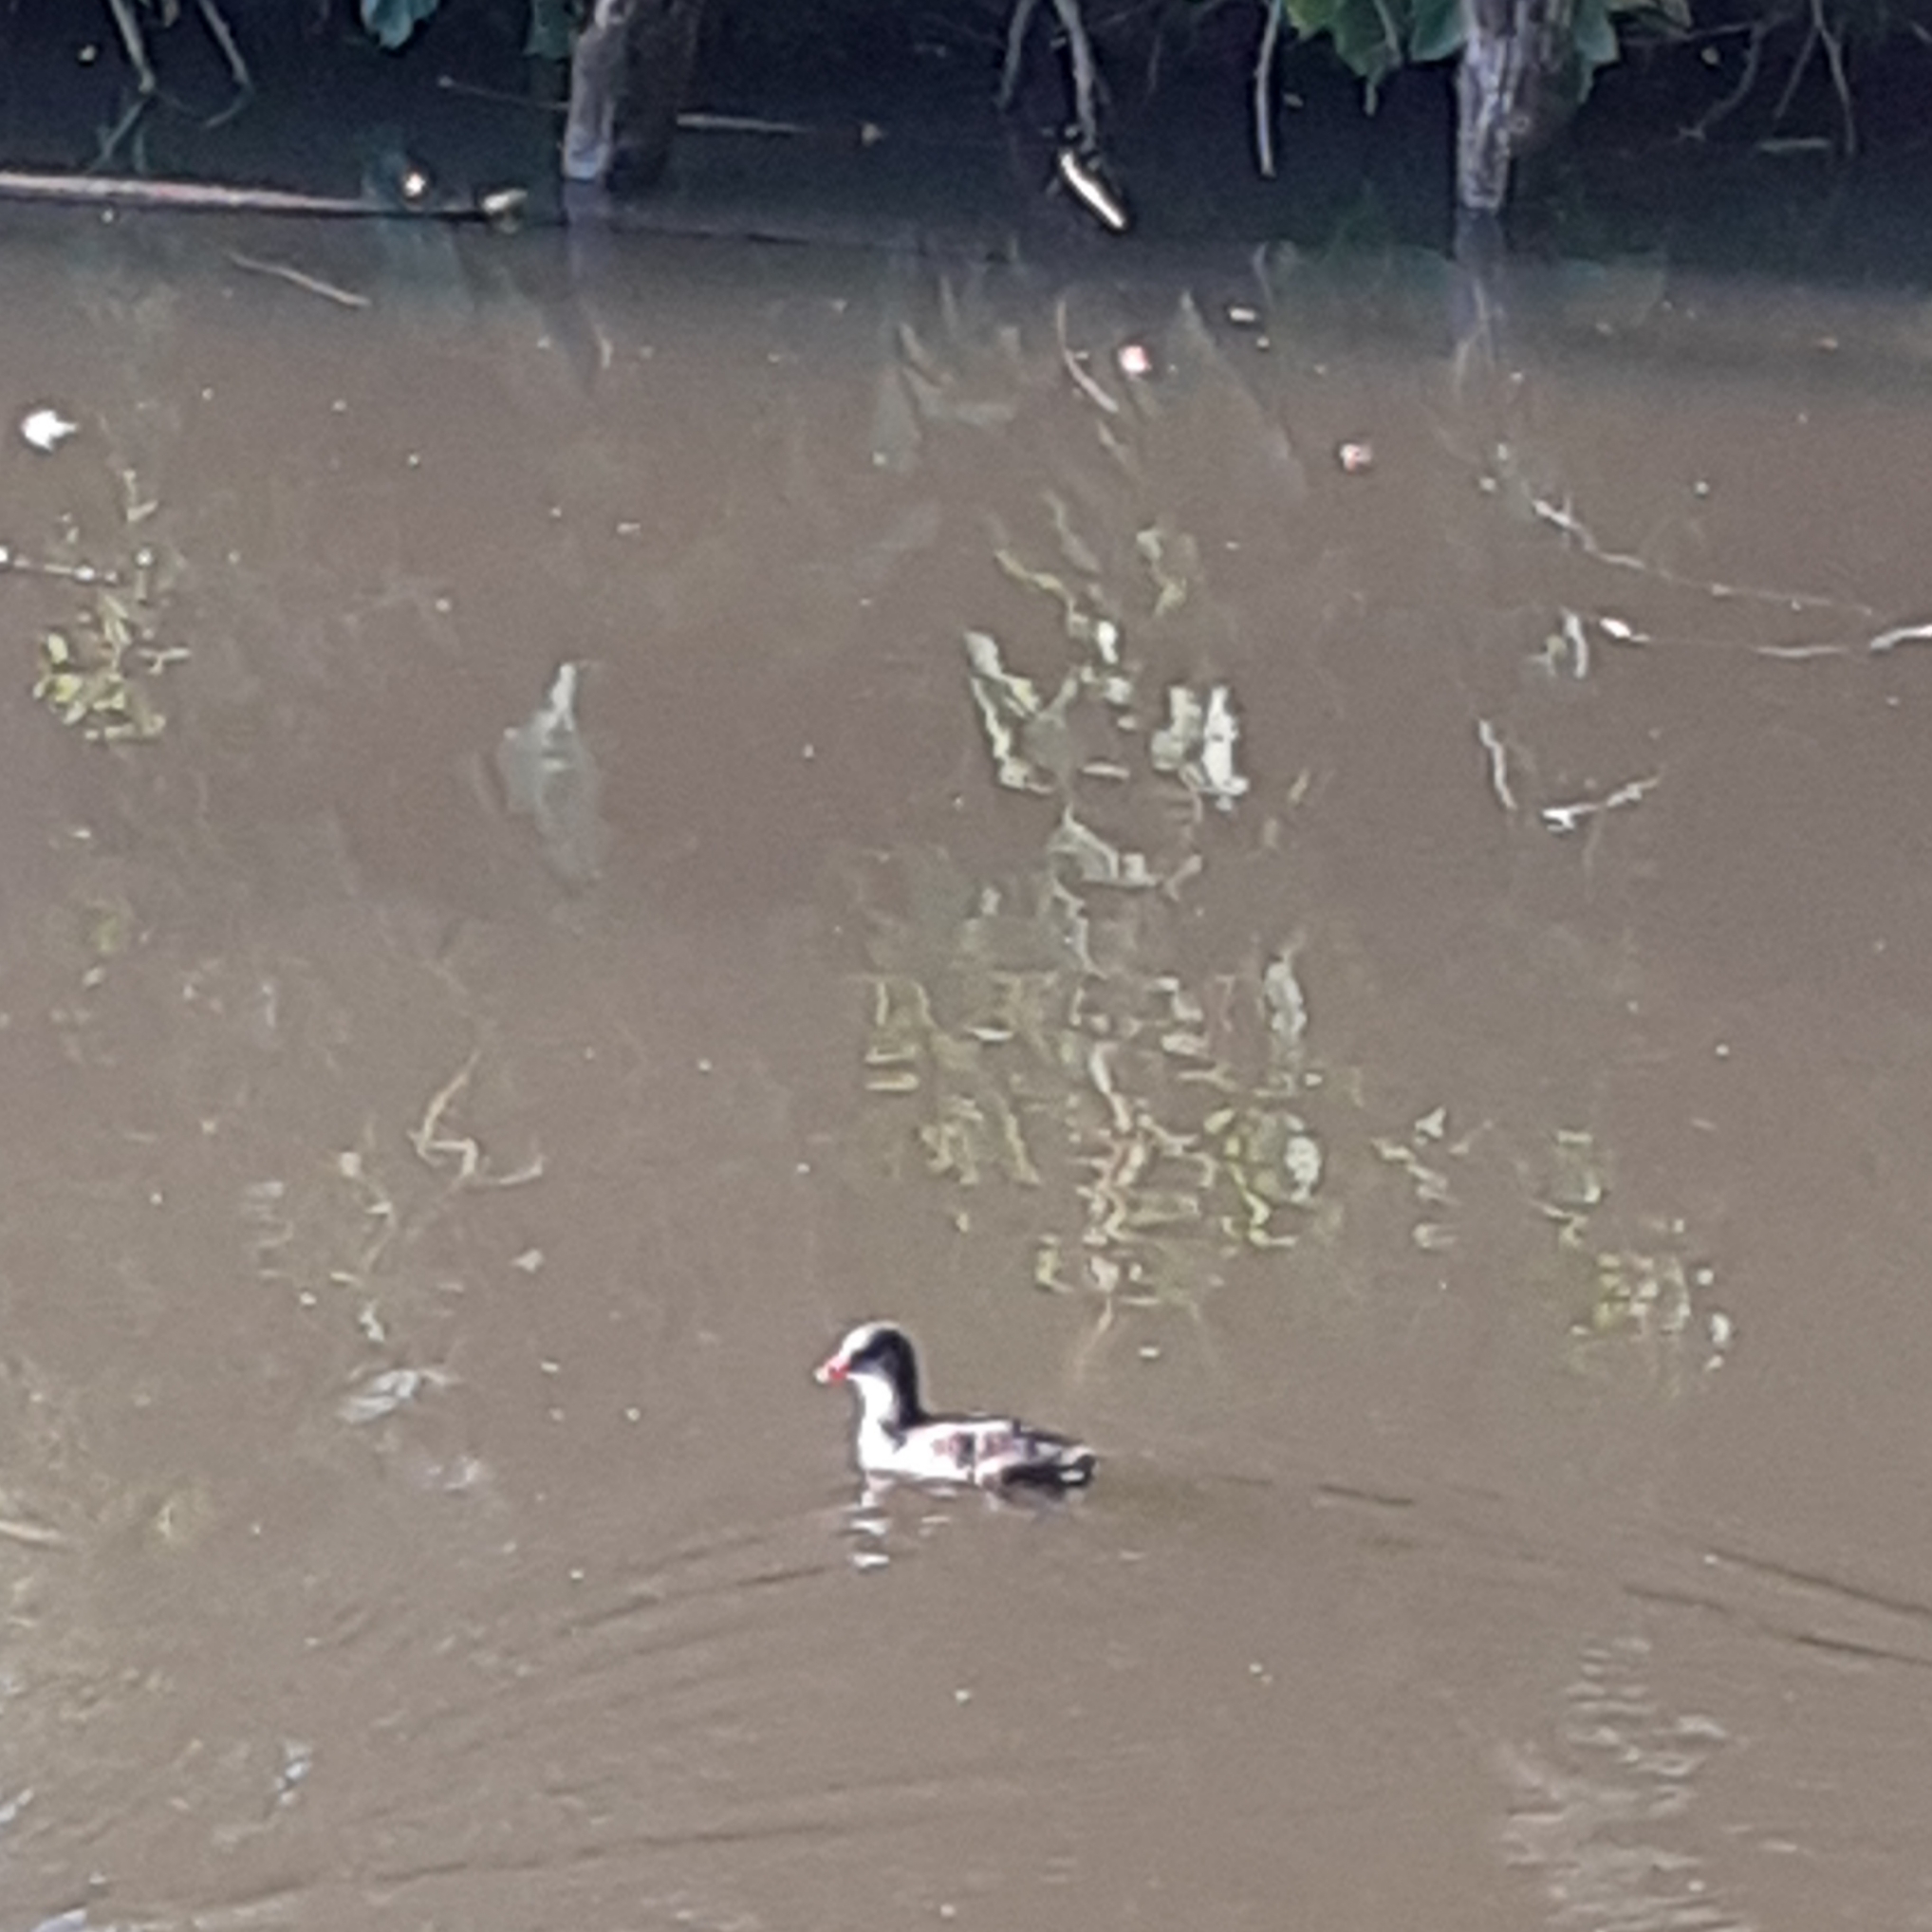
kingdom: Animalia
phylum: Chordata
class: Aves
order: Gruiformes
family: Rallidae
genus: Gallinula
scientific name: Gallinula chloropus
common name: Common moorhen
